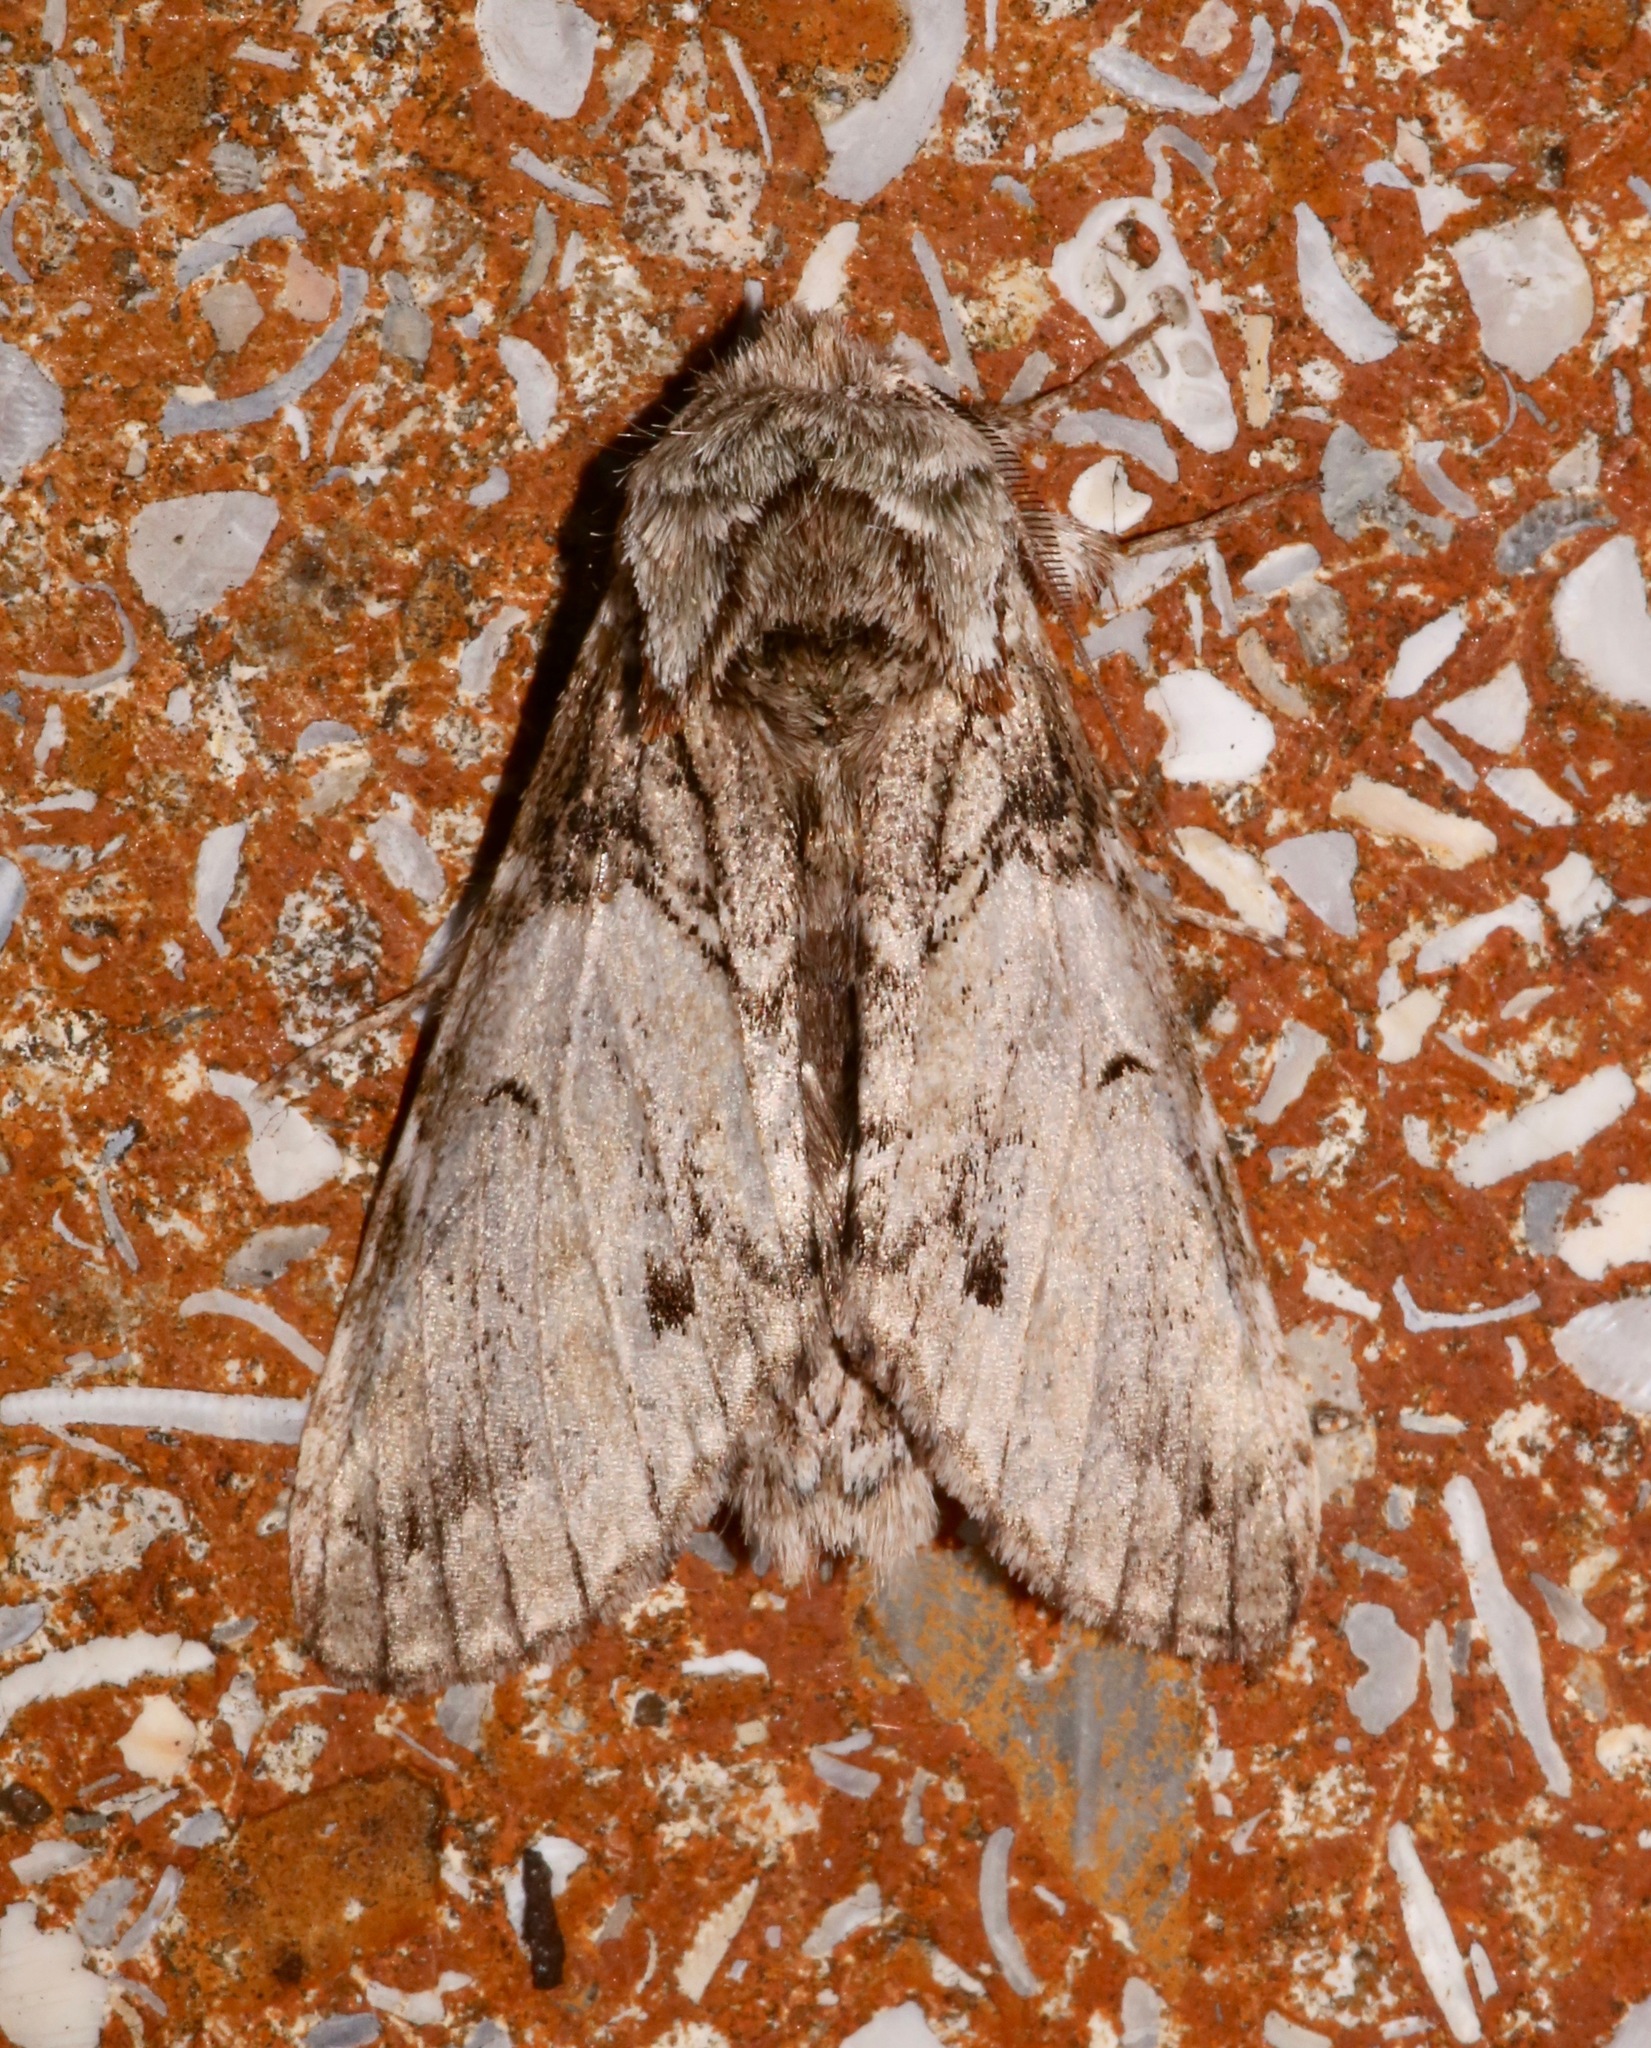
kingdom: Animalia
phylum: Arthropoda
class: Insecta
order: Lepidoptera
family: Notodontidae
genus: Macrurocampa
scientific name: Macrurocampa marthesia
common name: Mottled prominent
